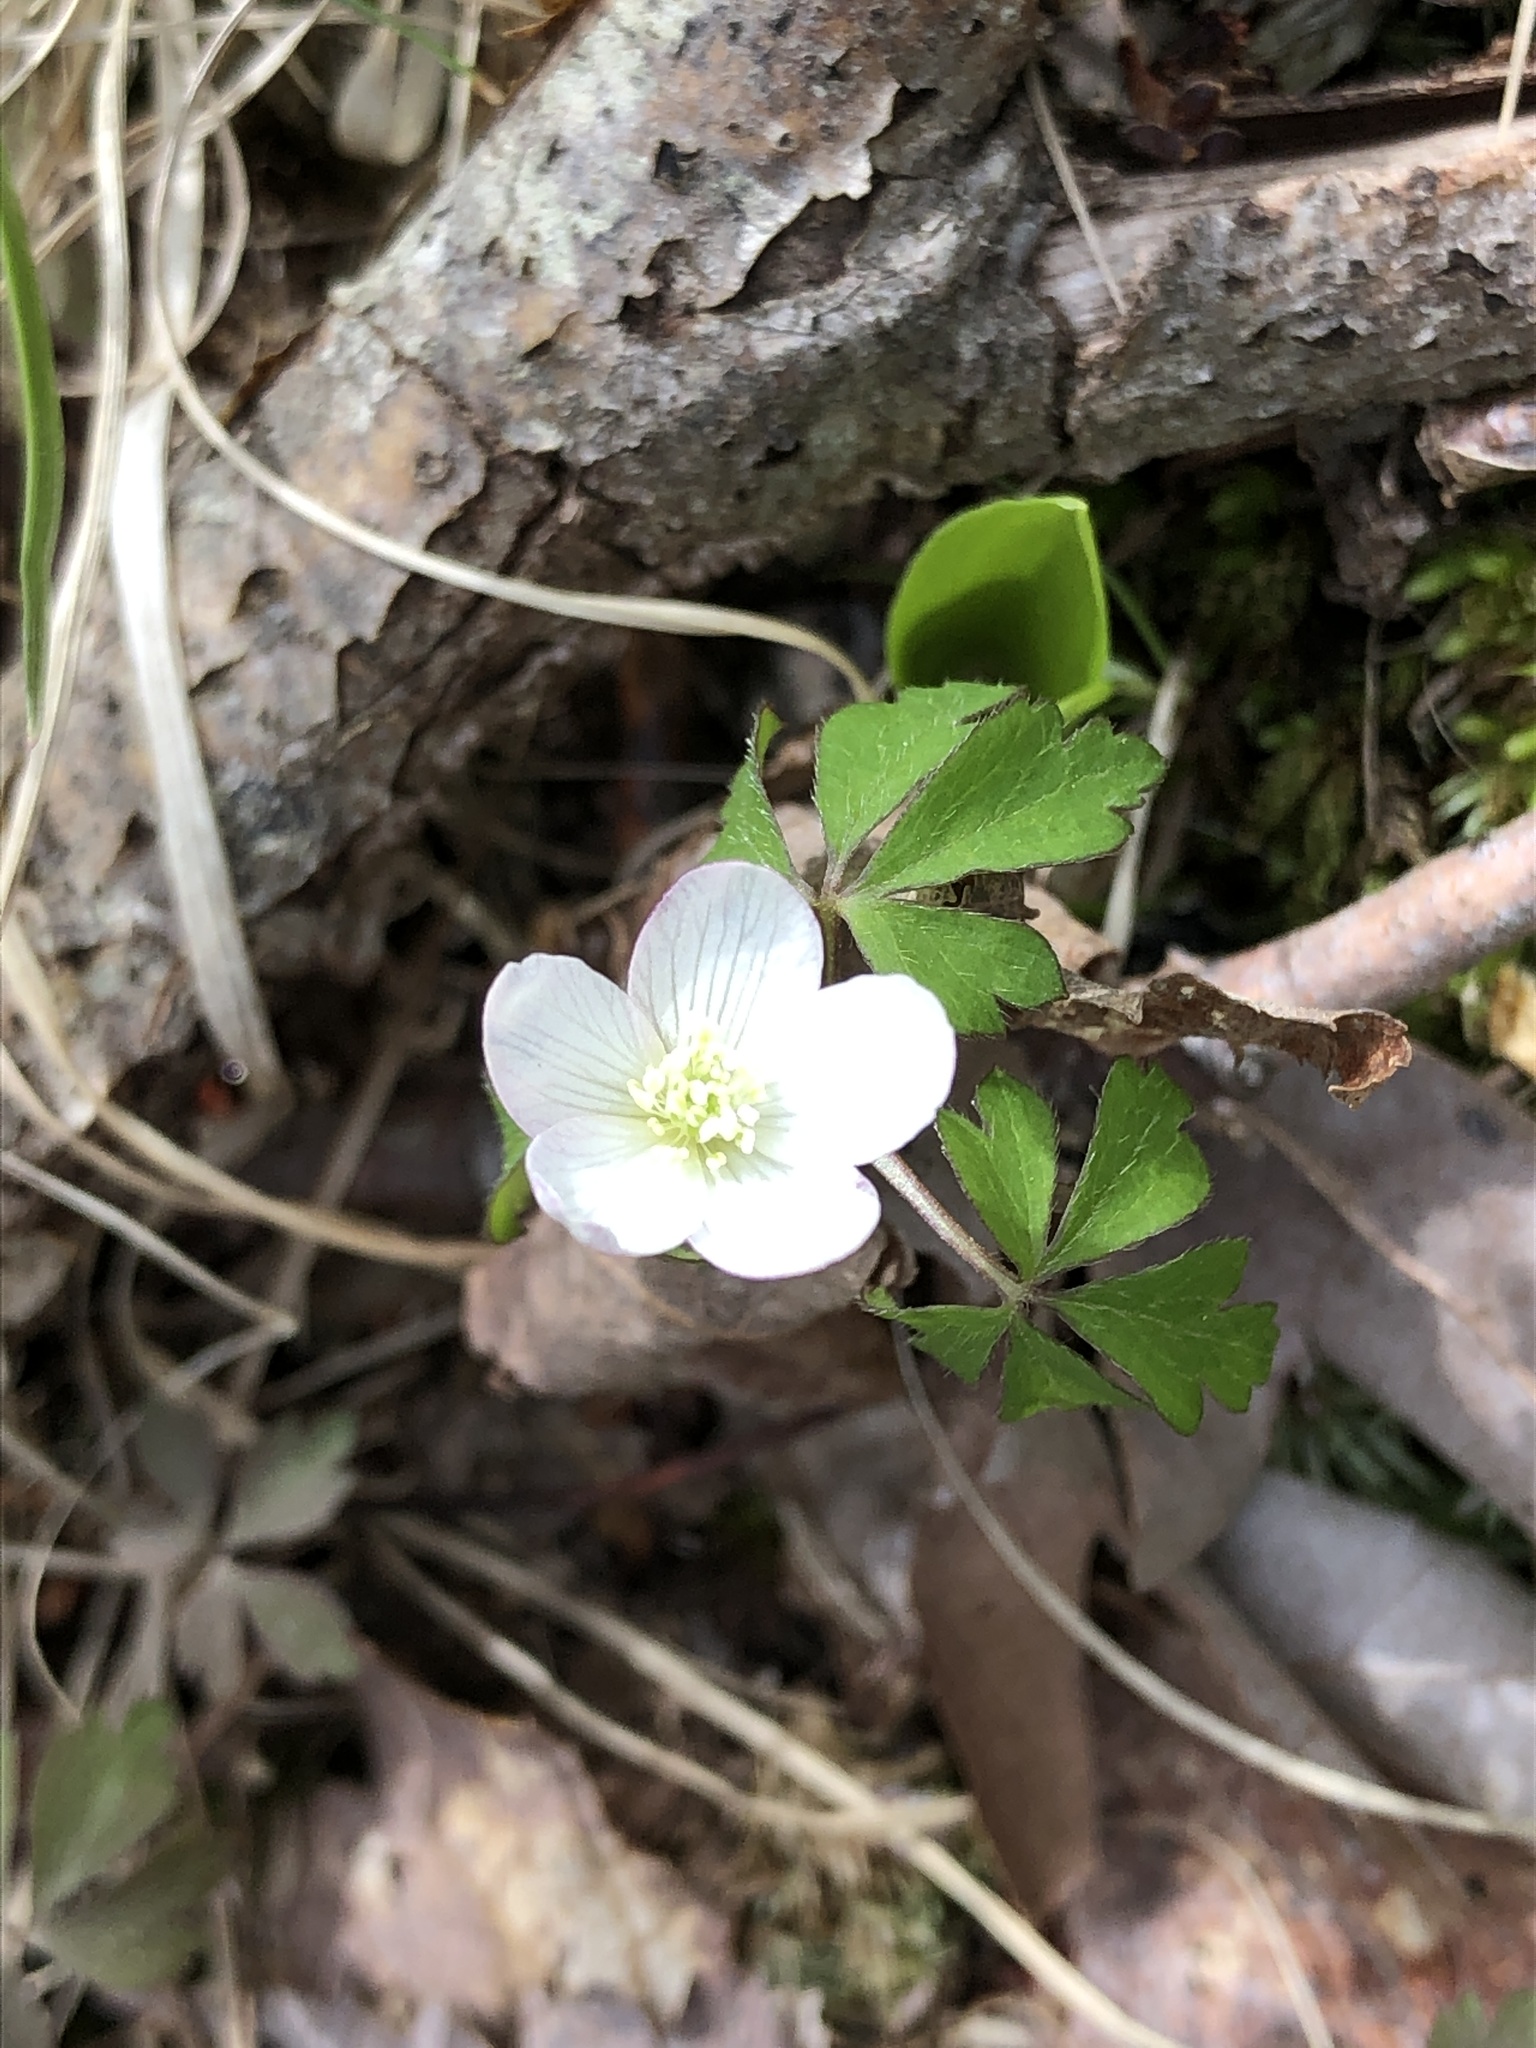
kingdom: Plantae
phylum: Tracheophyta
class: Magnoliopsida
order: Ranunculales
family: Ranunculaceae
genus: Anemone
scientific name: Anemone quinquefolia
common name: Wood anemone
